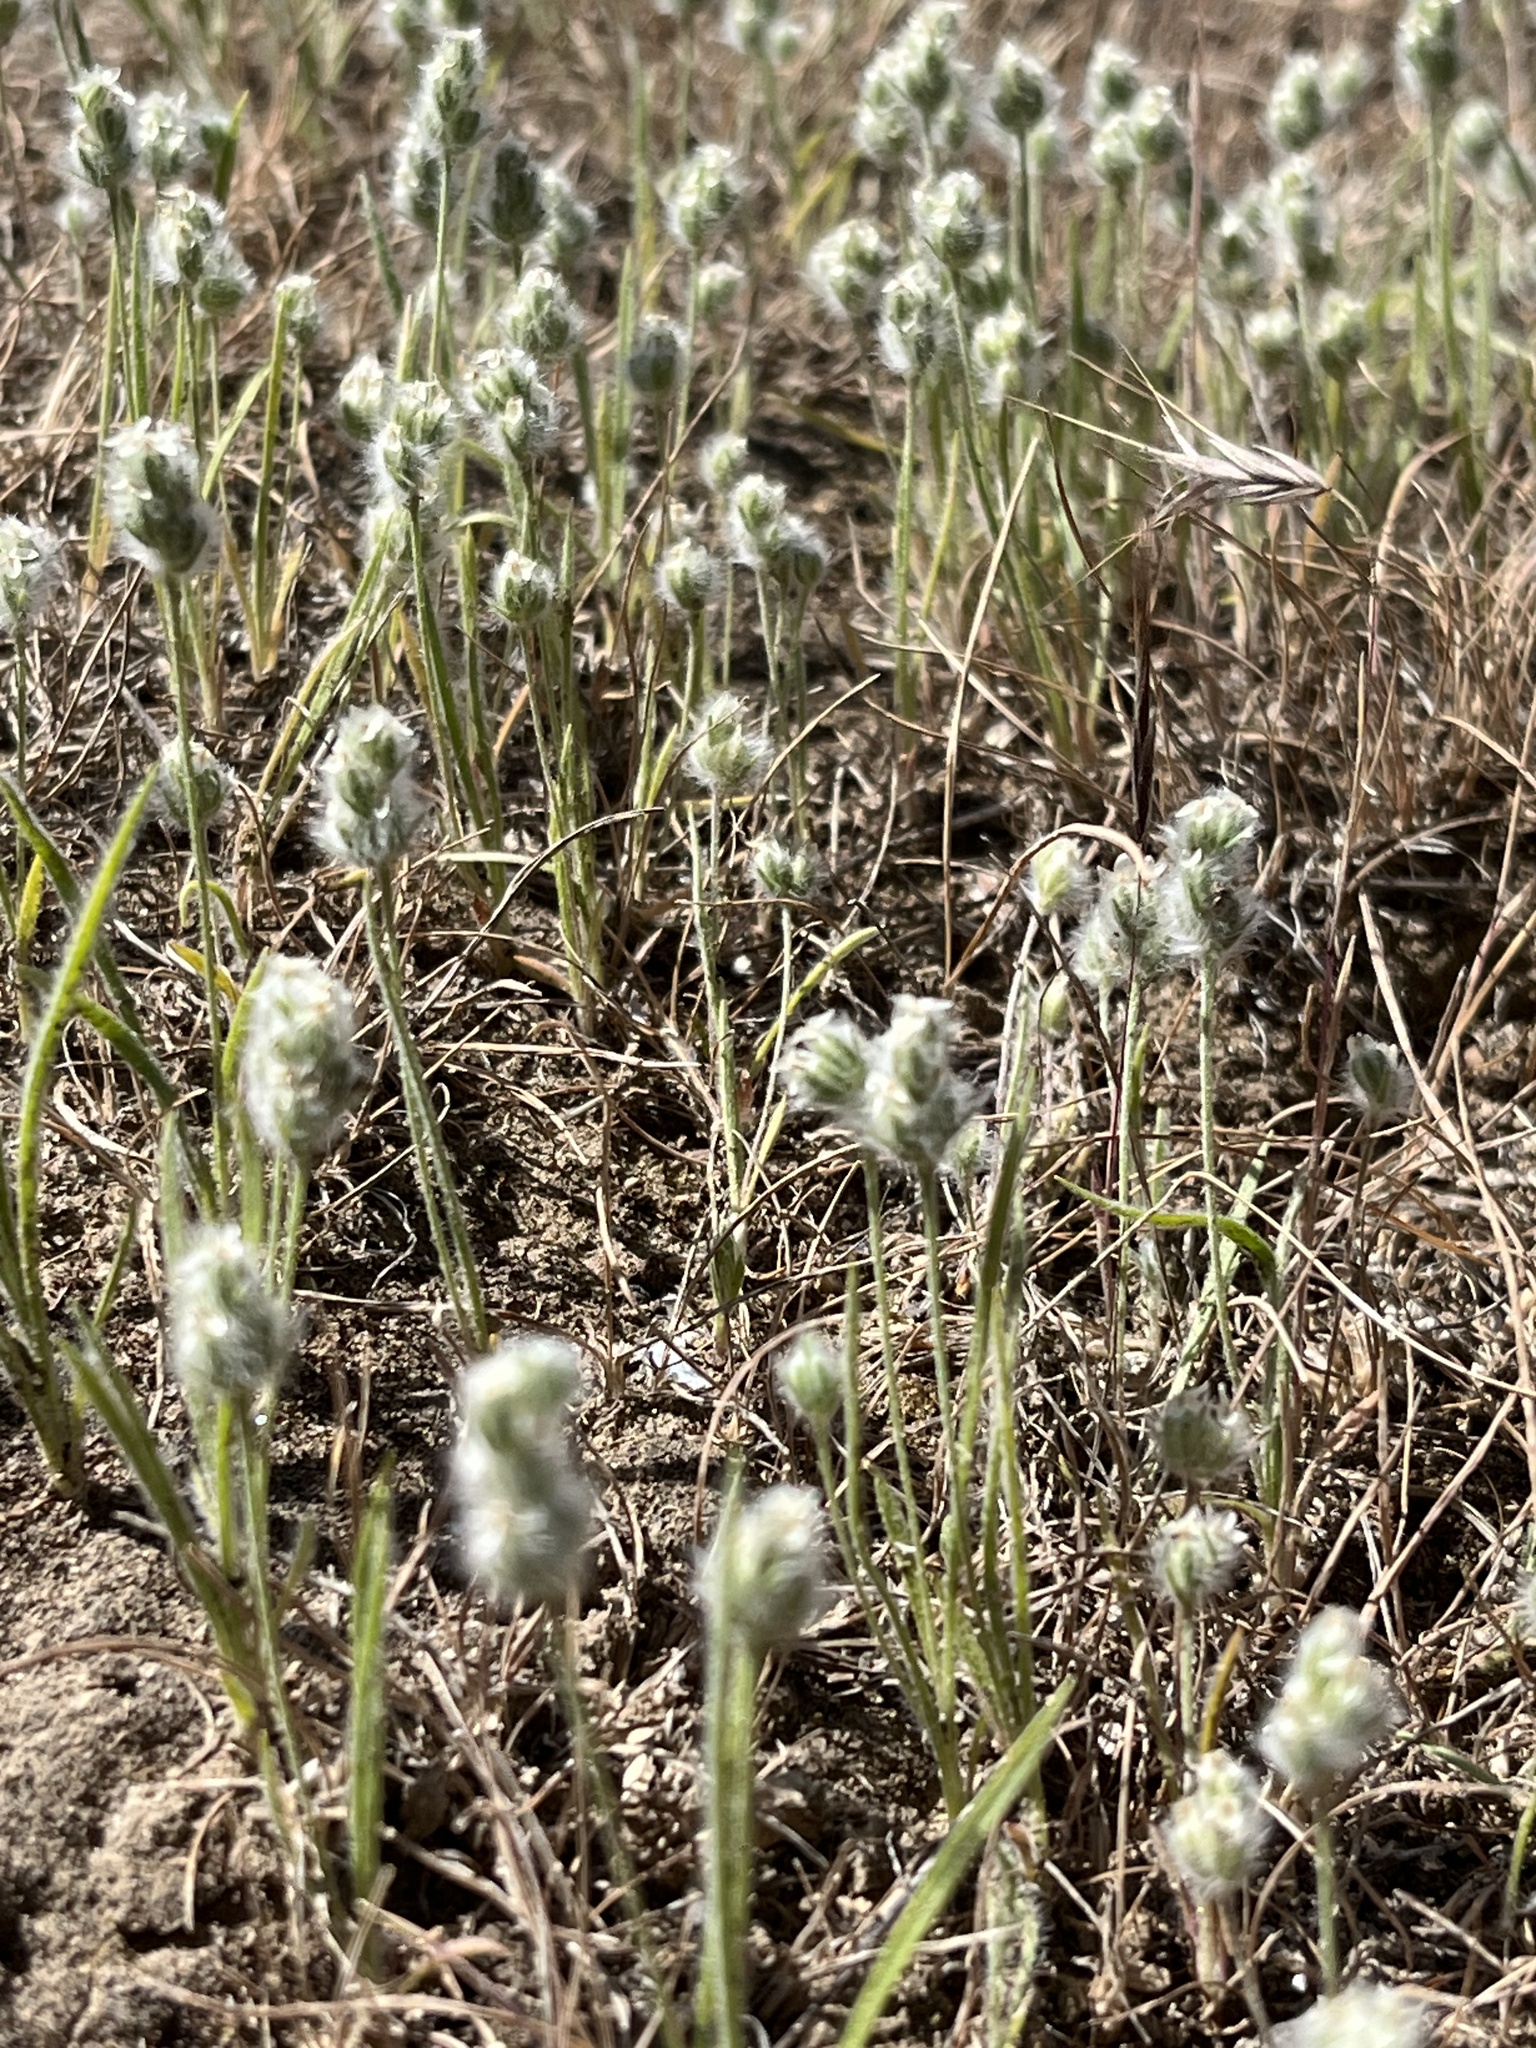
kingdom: Plantae
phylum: Tracheophyta
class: Magnoliopsida
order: Lamiales
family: Plantaginaceae
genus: Plantago
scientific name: Plantago patagonica
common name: Patagonia indian-wheat
